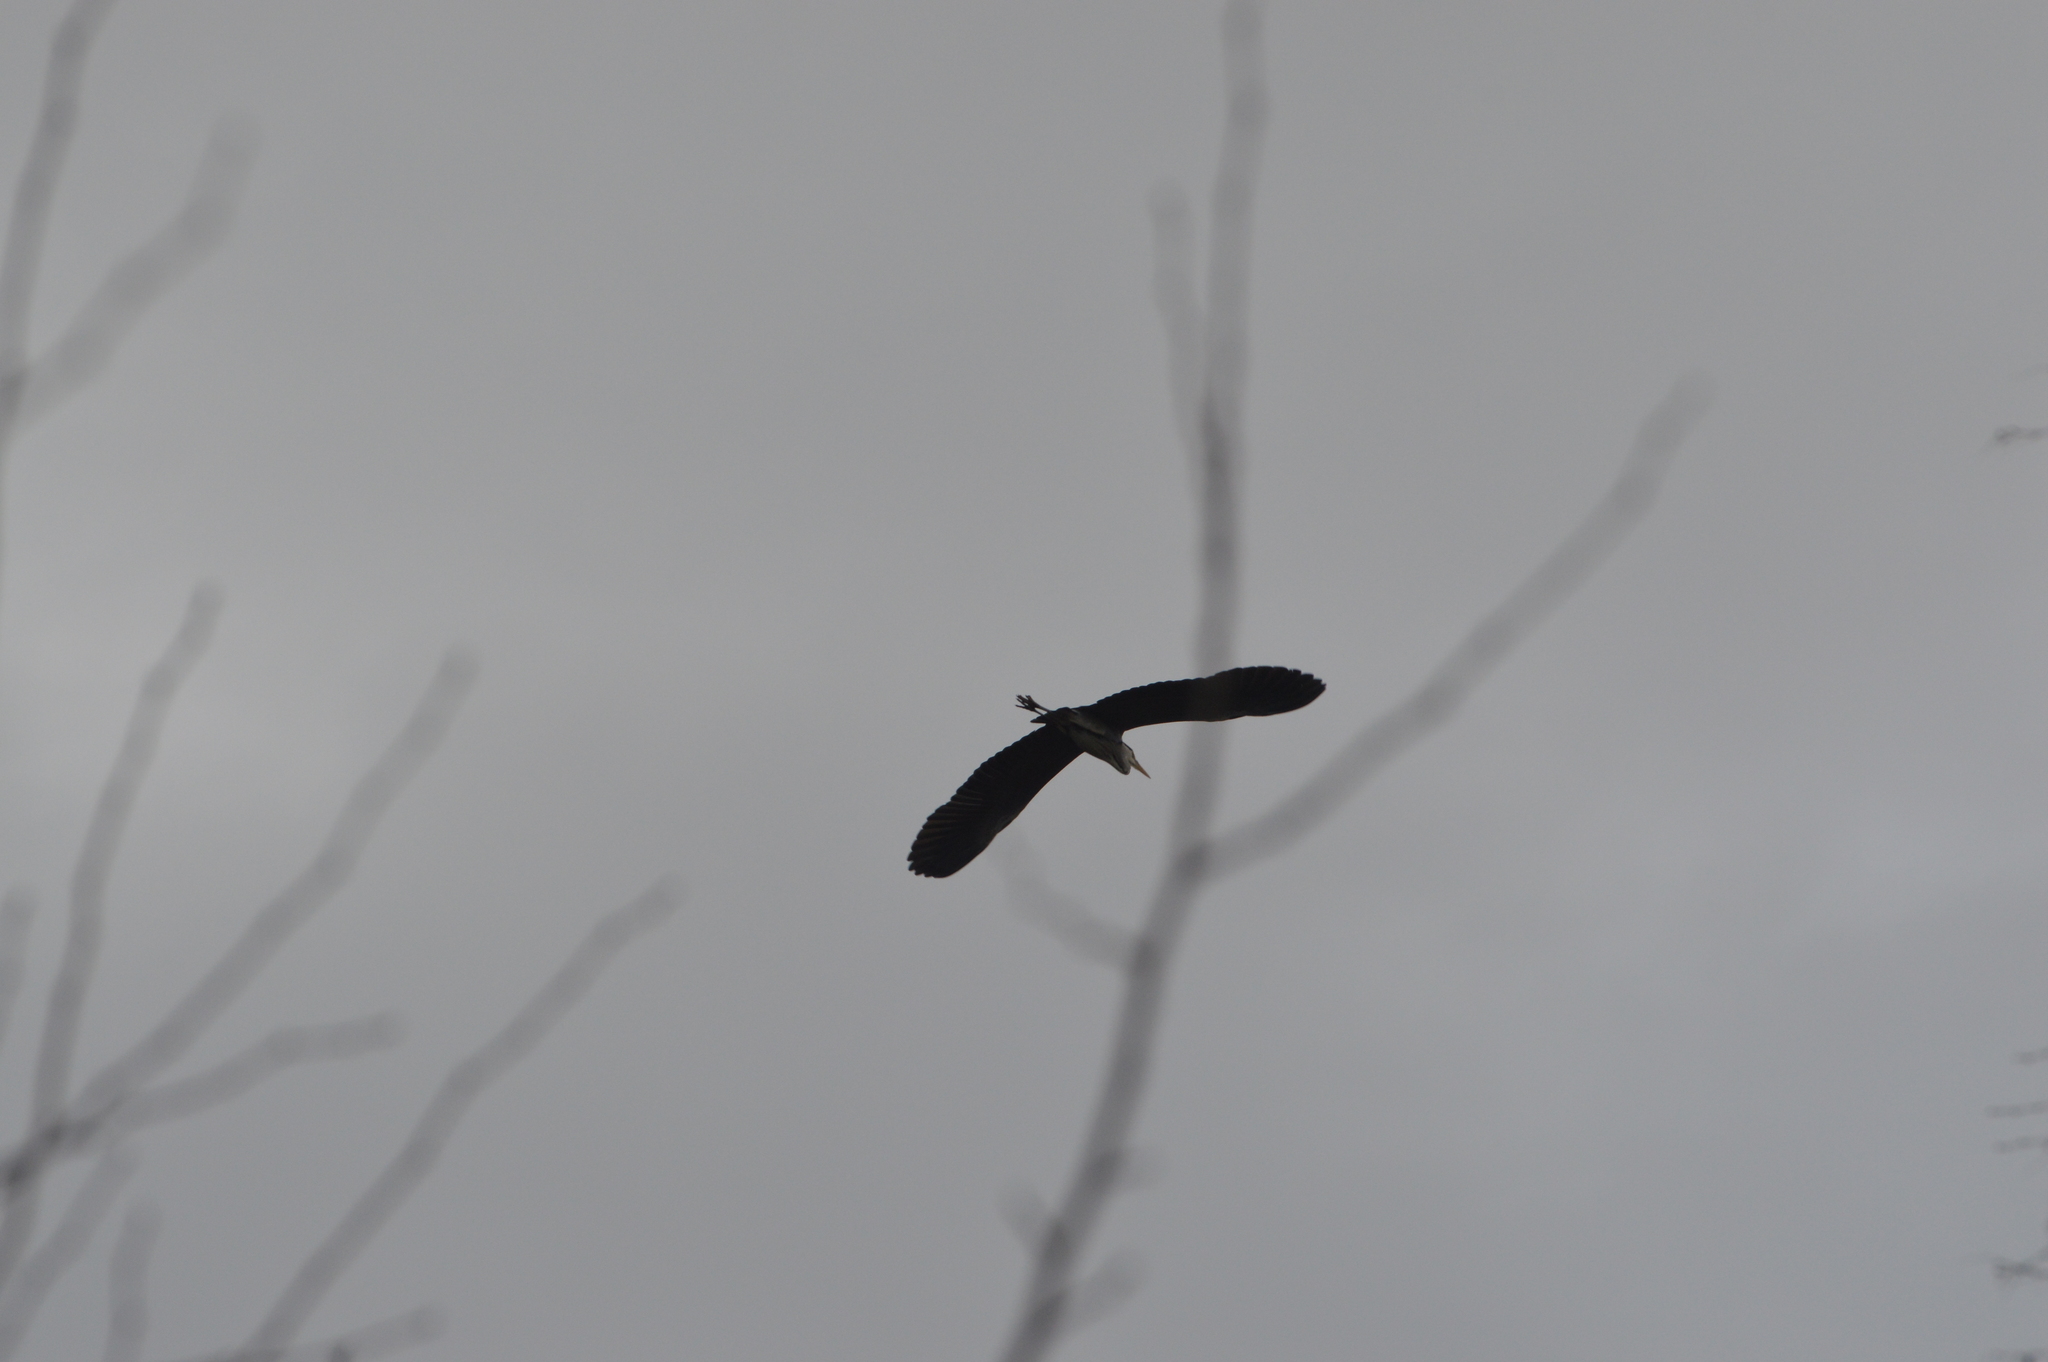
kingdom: Animalia
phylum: Chordata
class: Aves
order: Pelecaniformes
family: Ardeidae
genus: Ardea
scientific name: Ardea cinerea
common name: Grey heron
